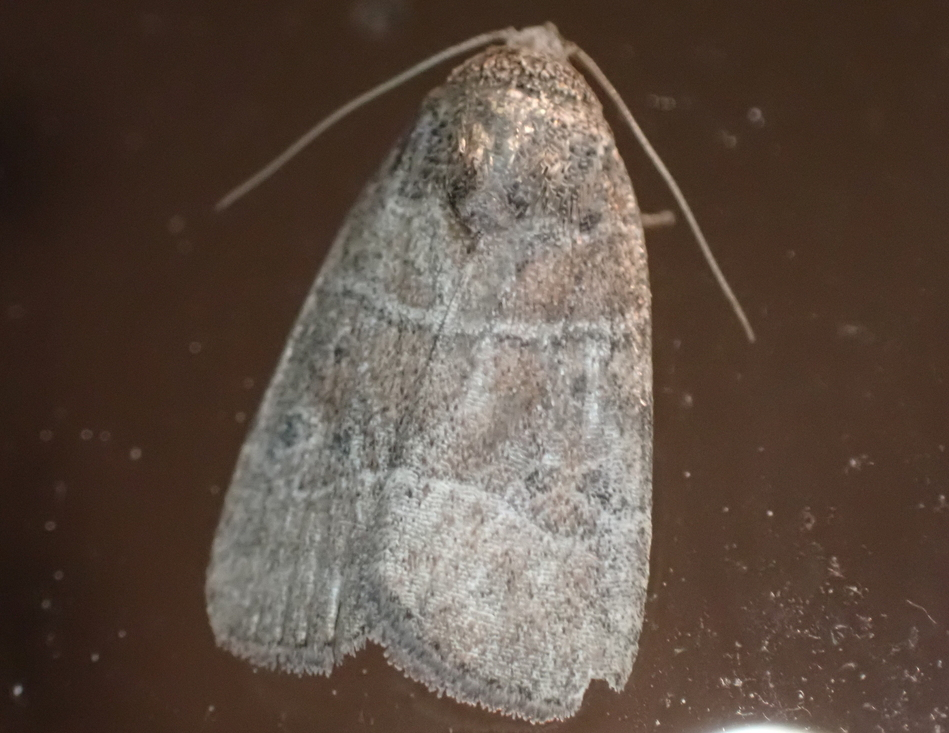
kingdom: Animalia
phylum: Arthropoda
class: Insecta
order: Lepidoptera
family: Noctuidae
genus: Elaphria
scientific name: Elaphria grata
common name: Grateful midget moth
